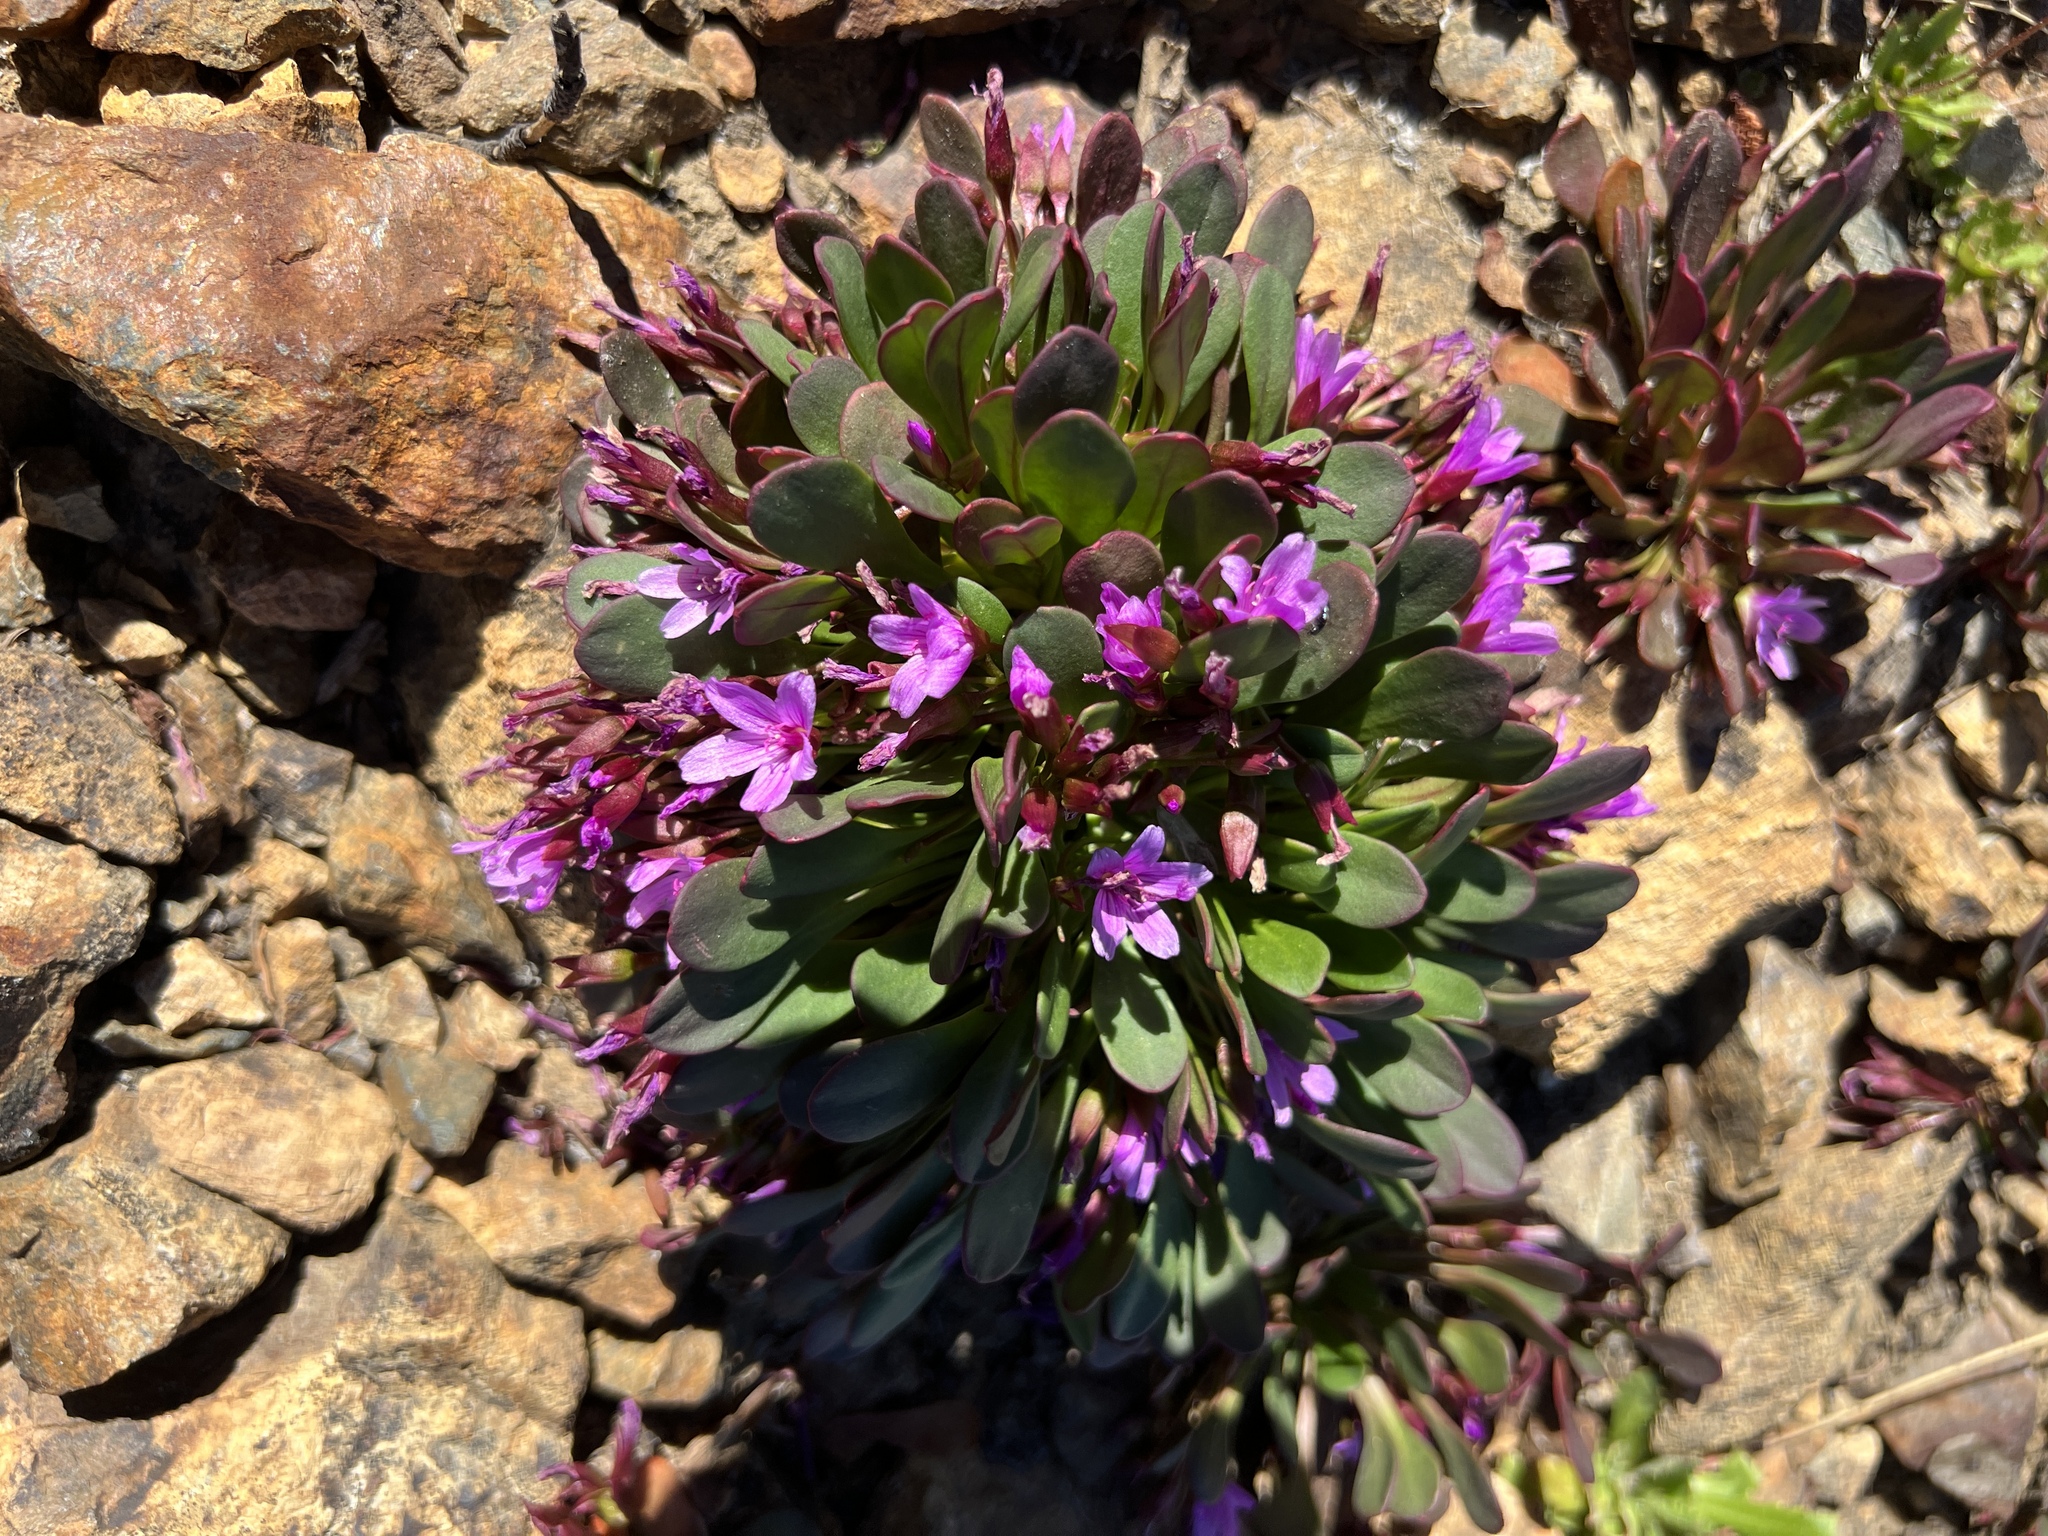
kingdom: Plantae
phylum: Tracheophyta
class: Magnoliopsida
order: Caryophyllales
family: Montiaceae
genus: Claytonia
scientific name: Claytonia megarhiza
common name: Alpine spring beauty
